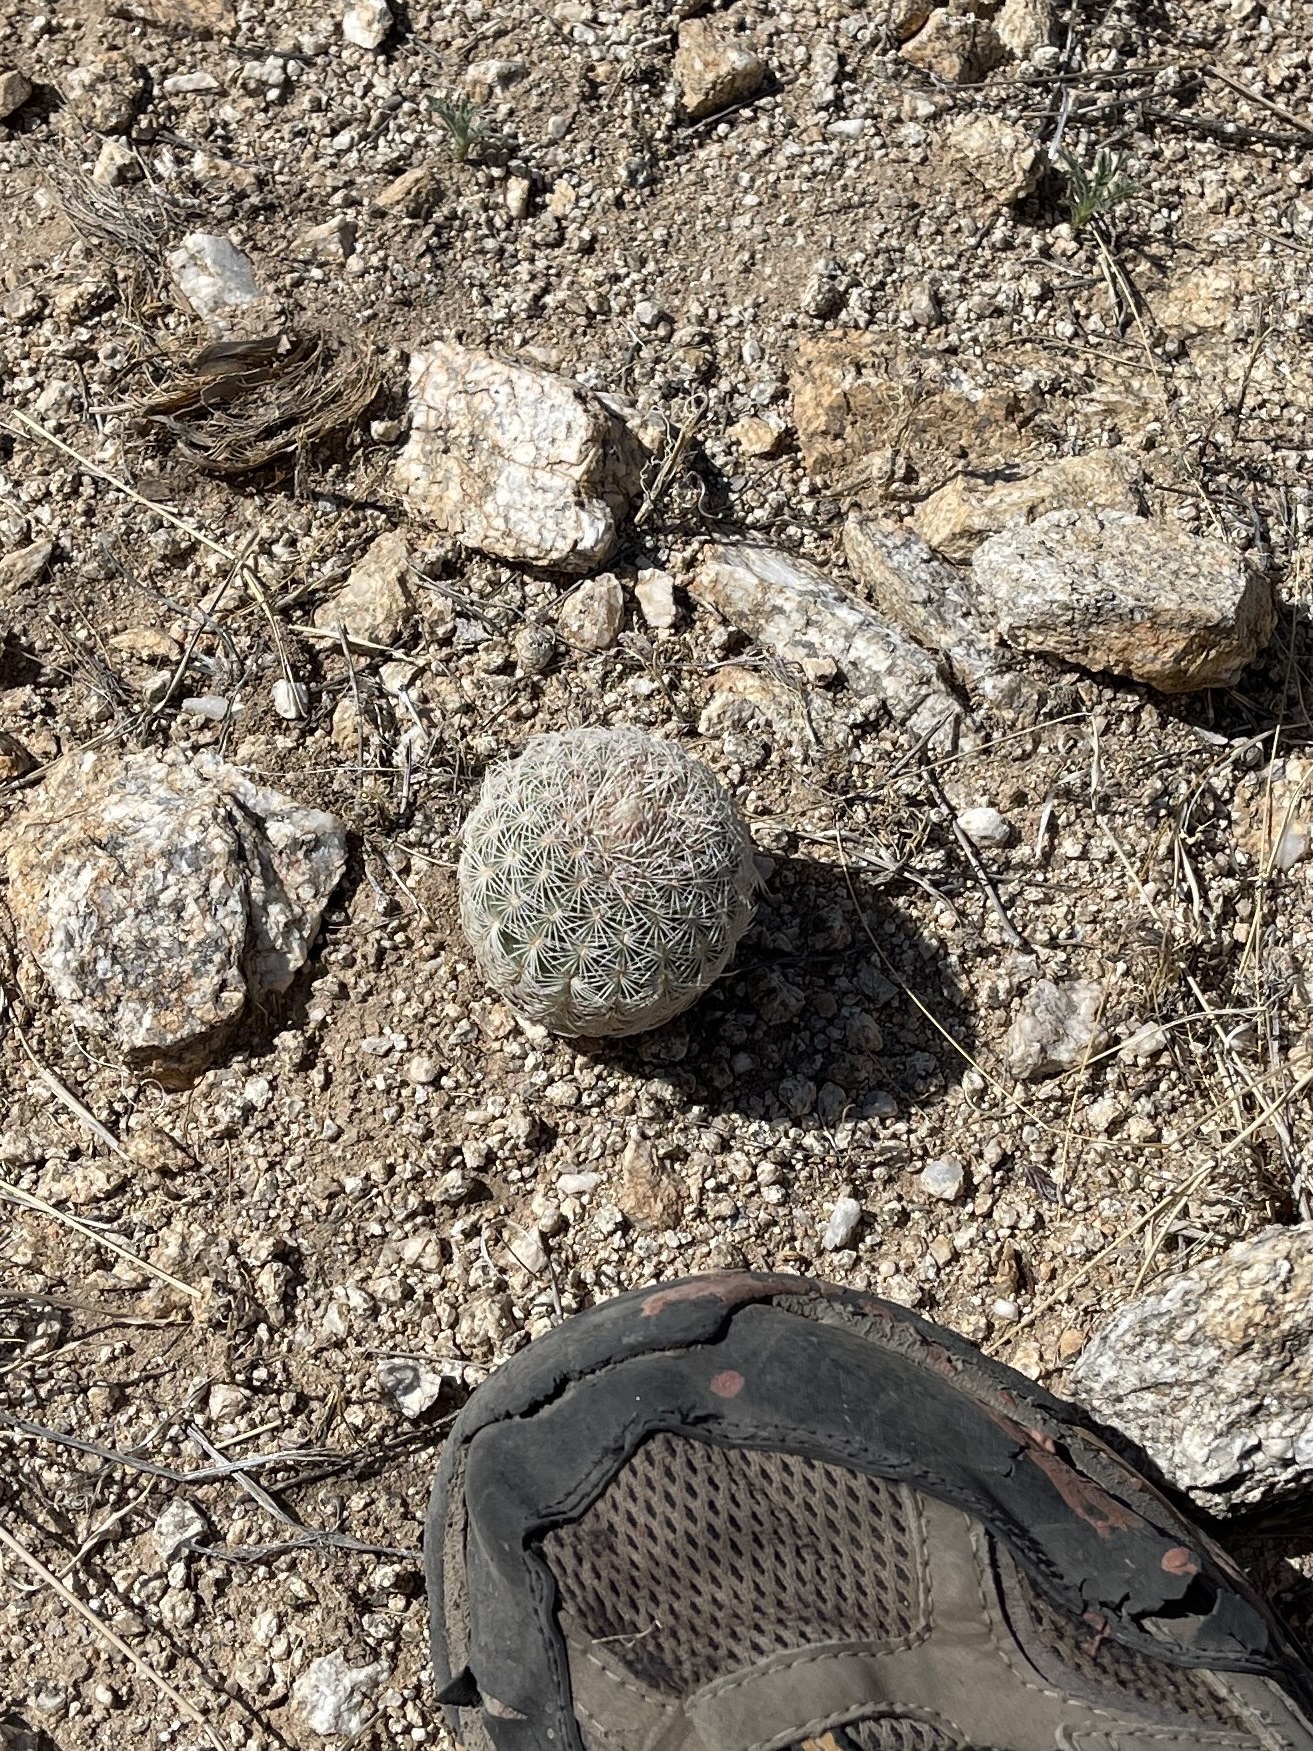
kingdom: Plantae
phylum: Tracheophyta
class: Magnoliopsida
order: Caryophyllales
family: Cactaceae
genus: Echinocereus
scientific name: Echinocereus rigidissimus
